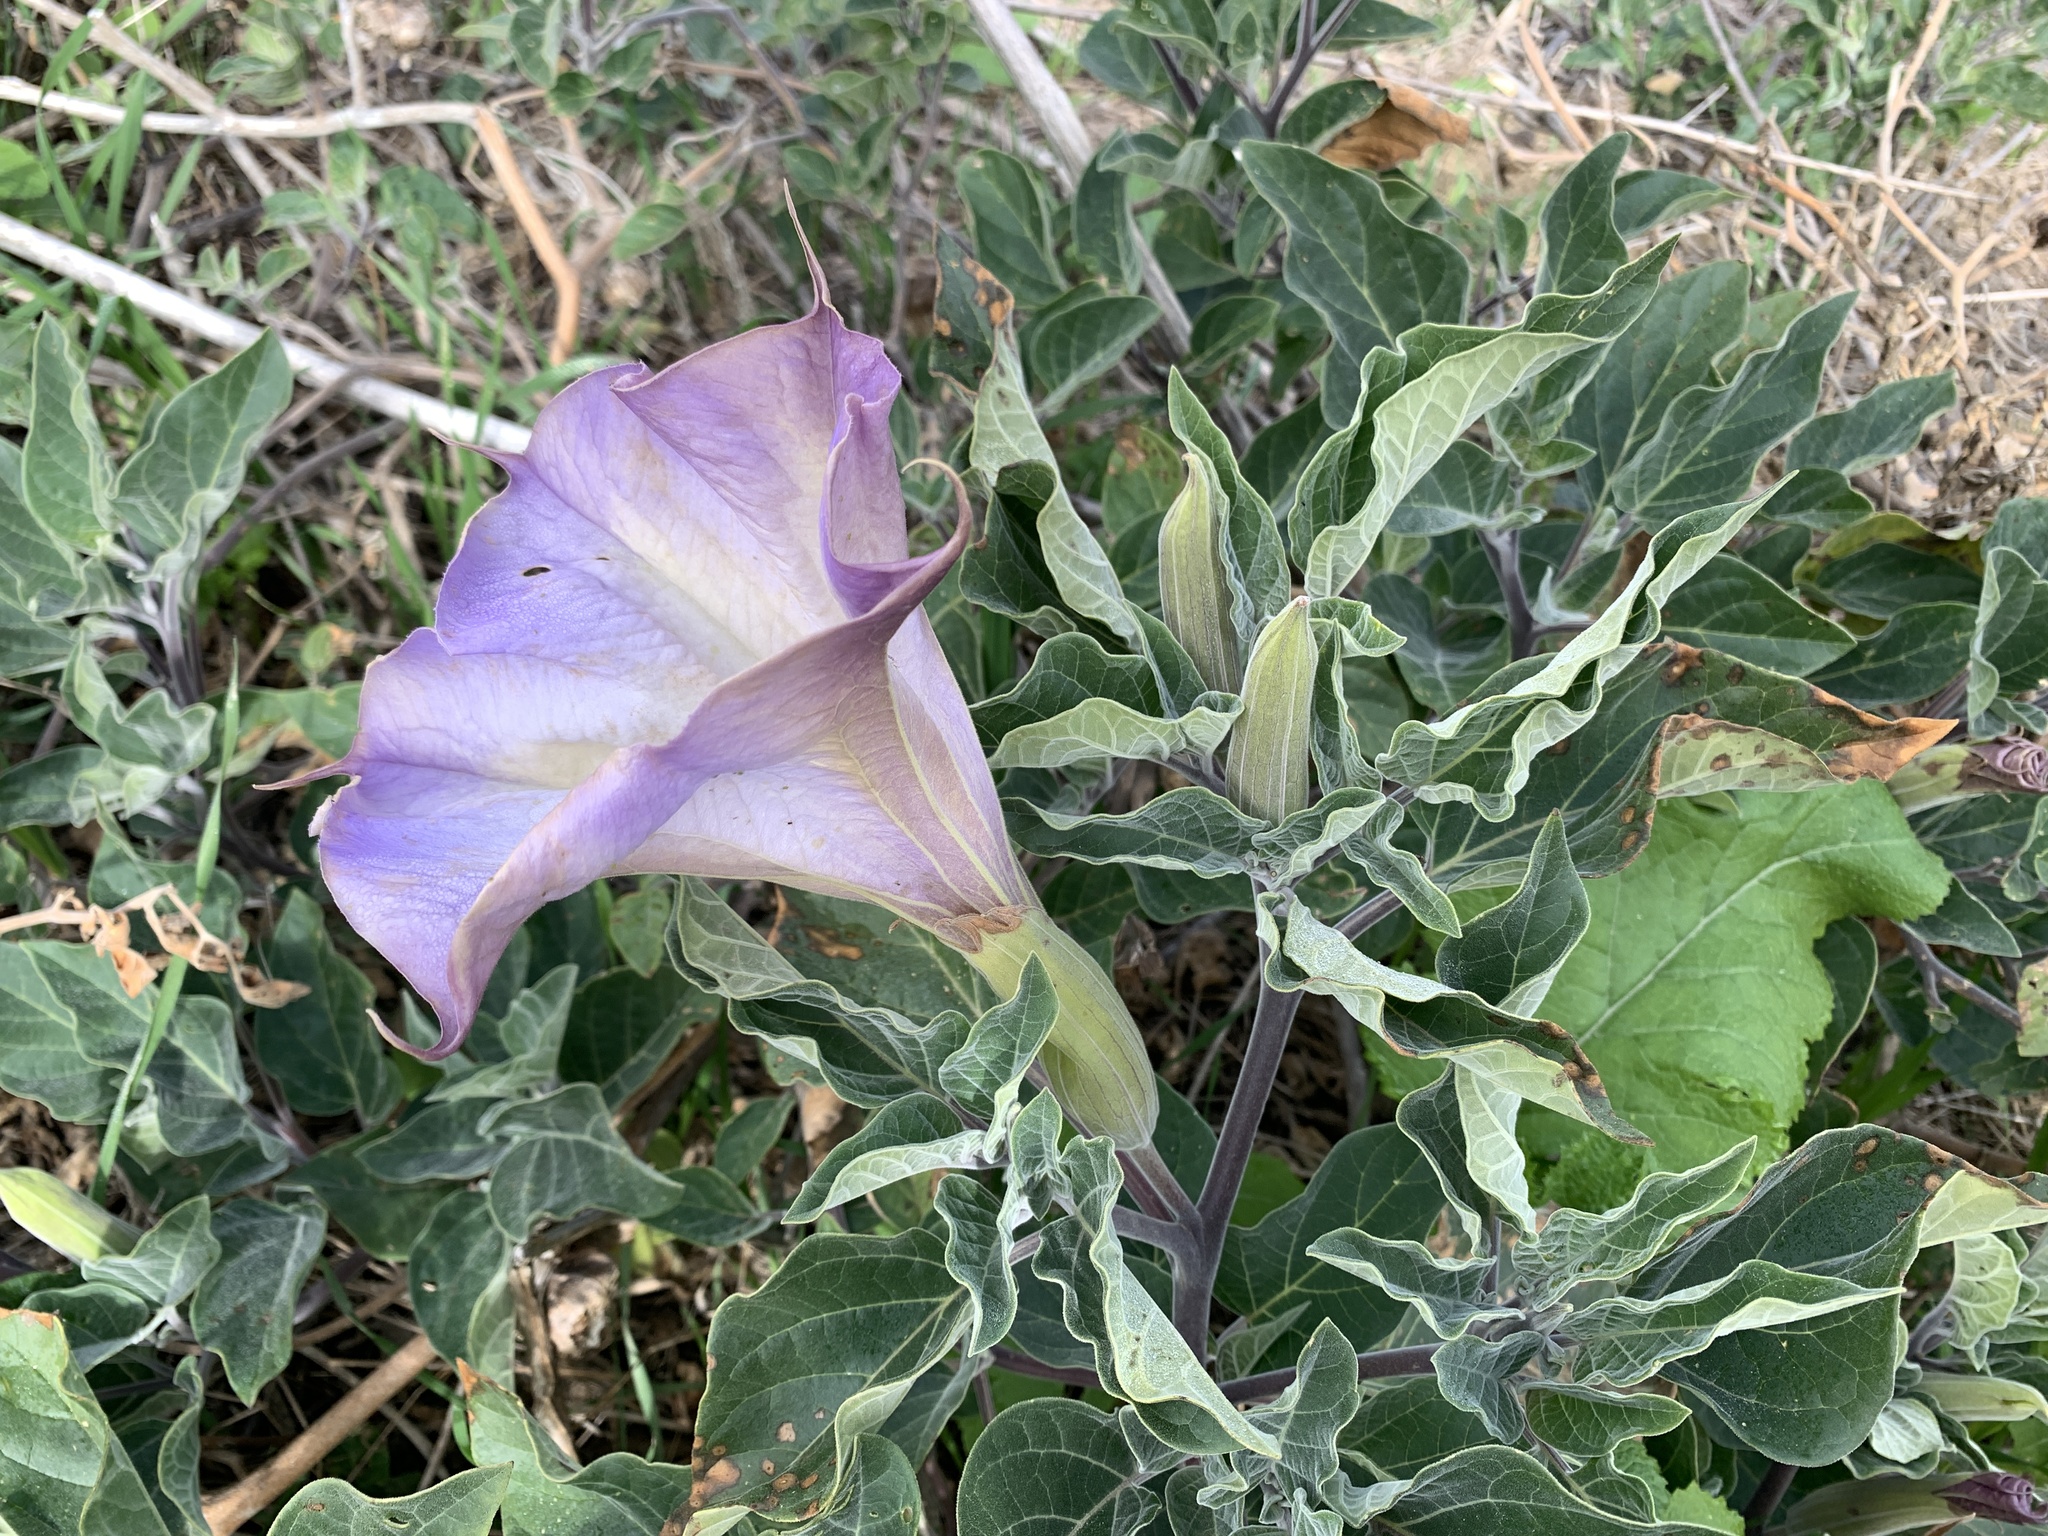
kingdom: Plantae
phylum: Tracheophyta
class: Magnoliopsida
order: Solanales
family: Solanaceae
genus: Datura
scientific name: Datura wrightii
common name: Sacred thorn-apple
